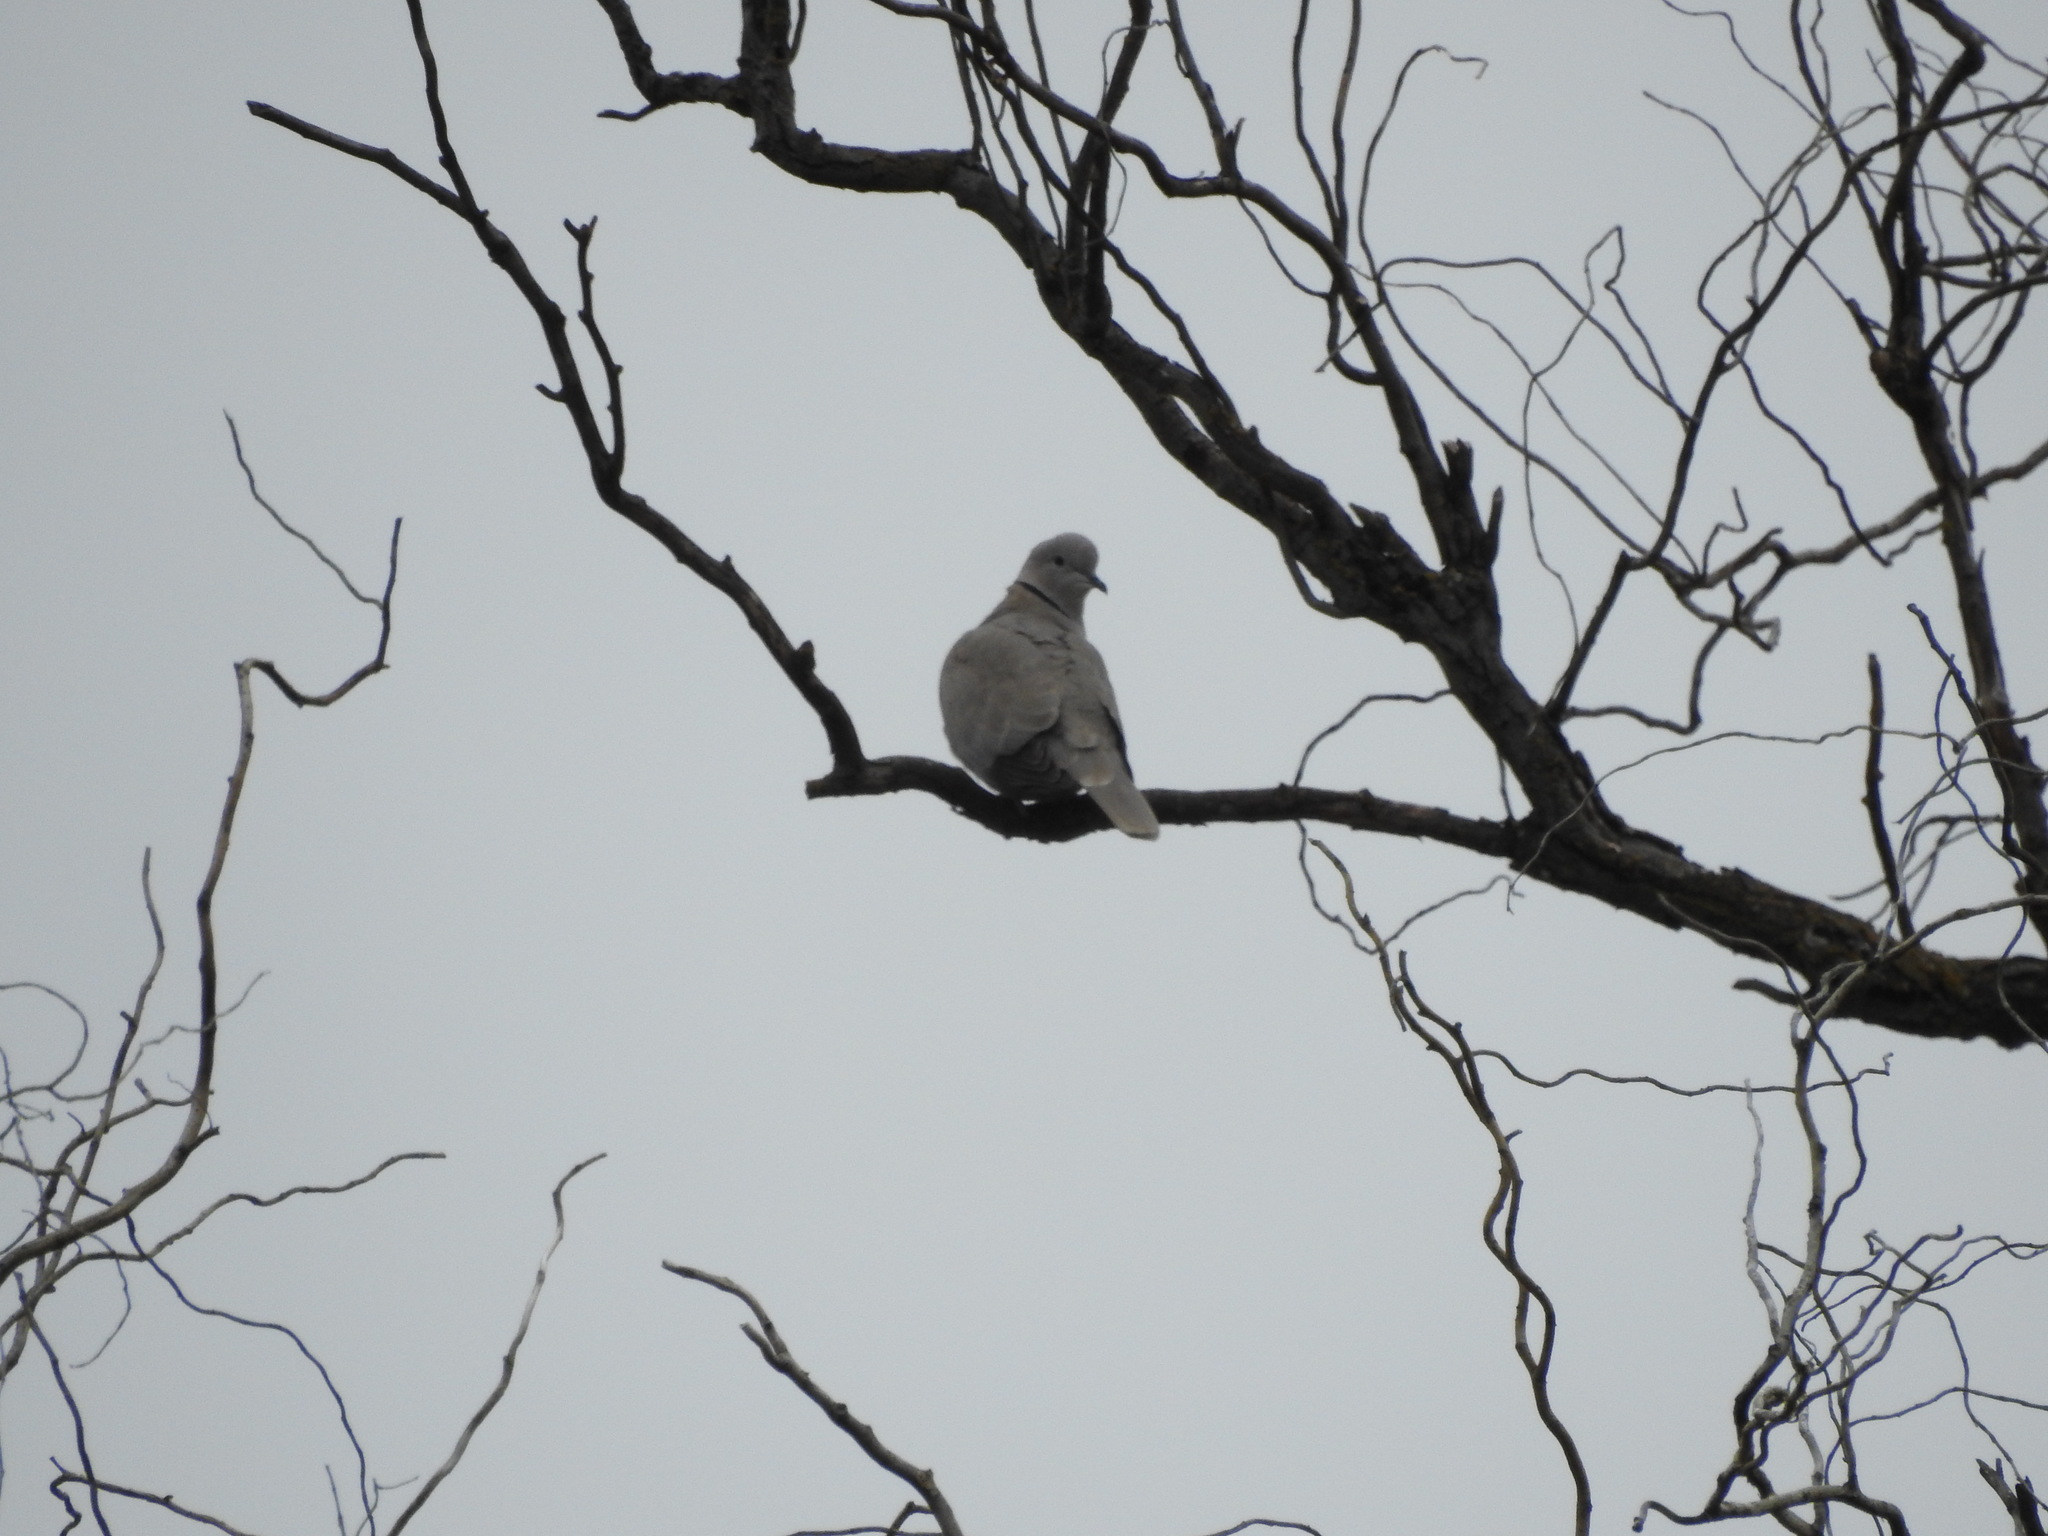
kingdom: Animalia
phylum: Chordata
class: Aves
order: Columbiformes
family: Columbidae
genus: Streptopelia
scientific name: Streptopelia decaocto
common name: Eurasian collared dove
